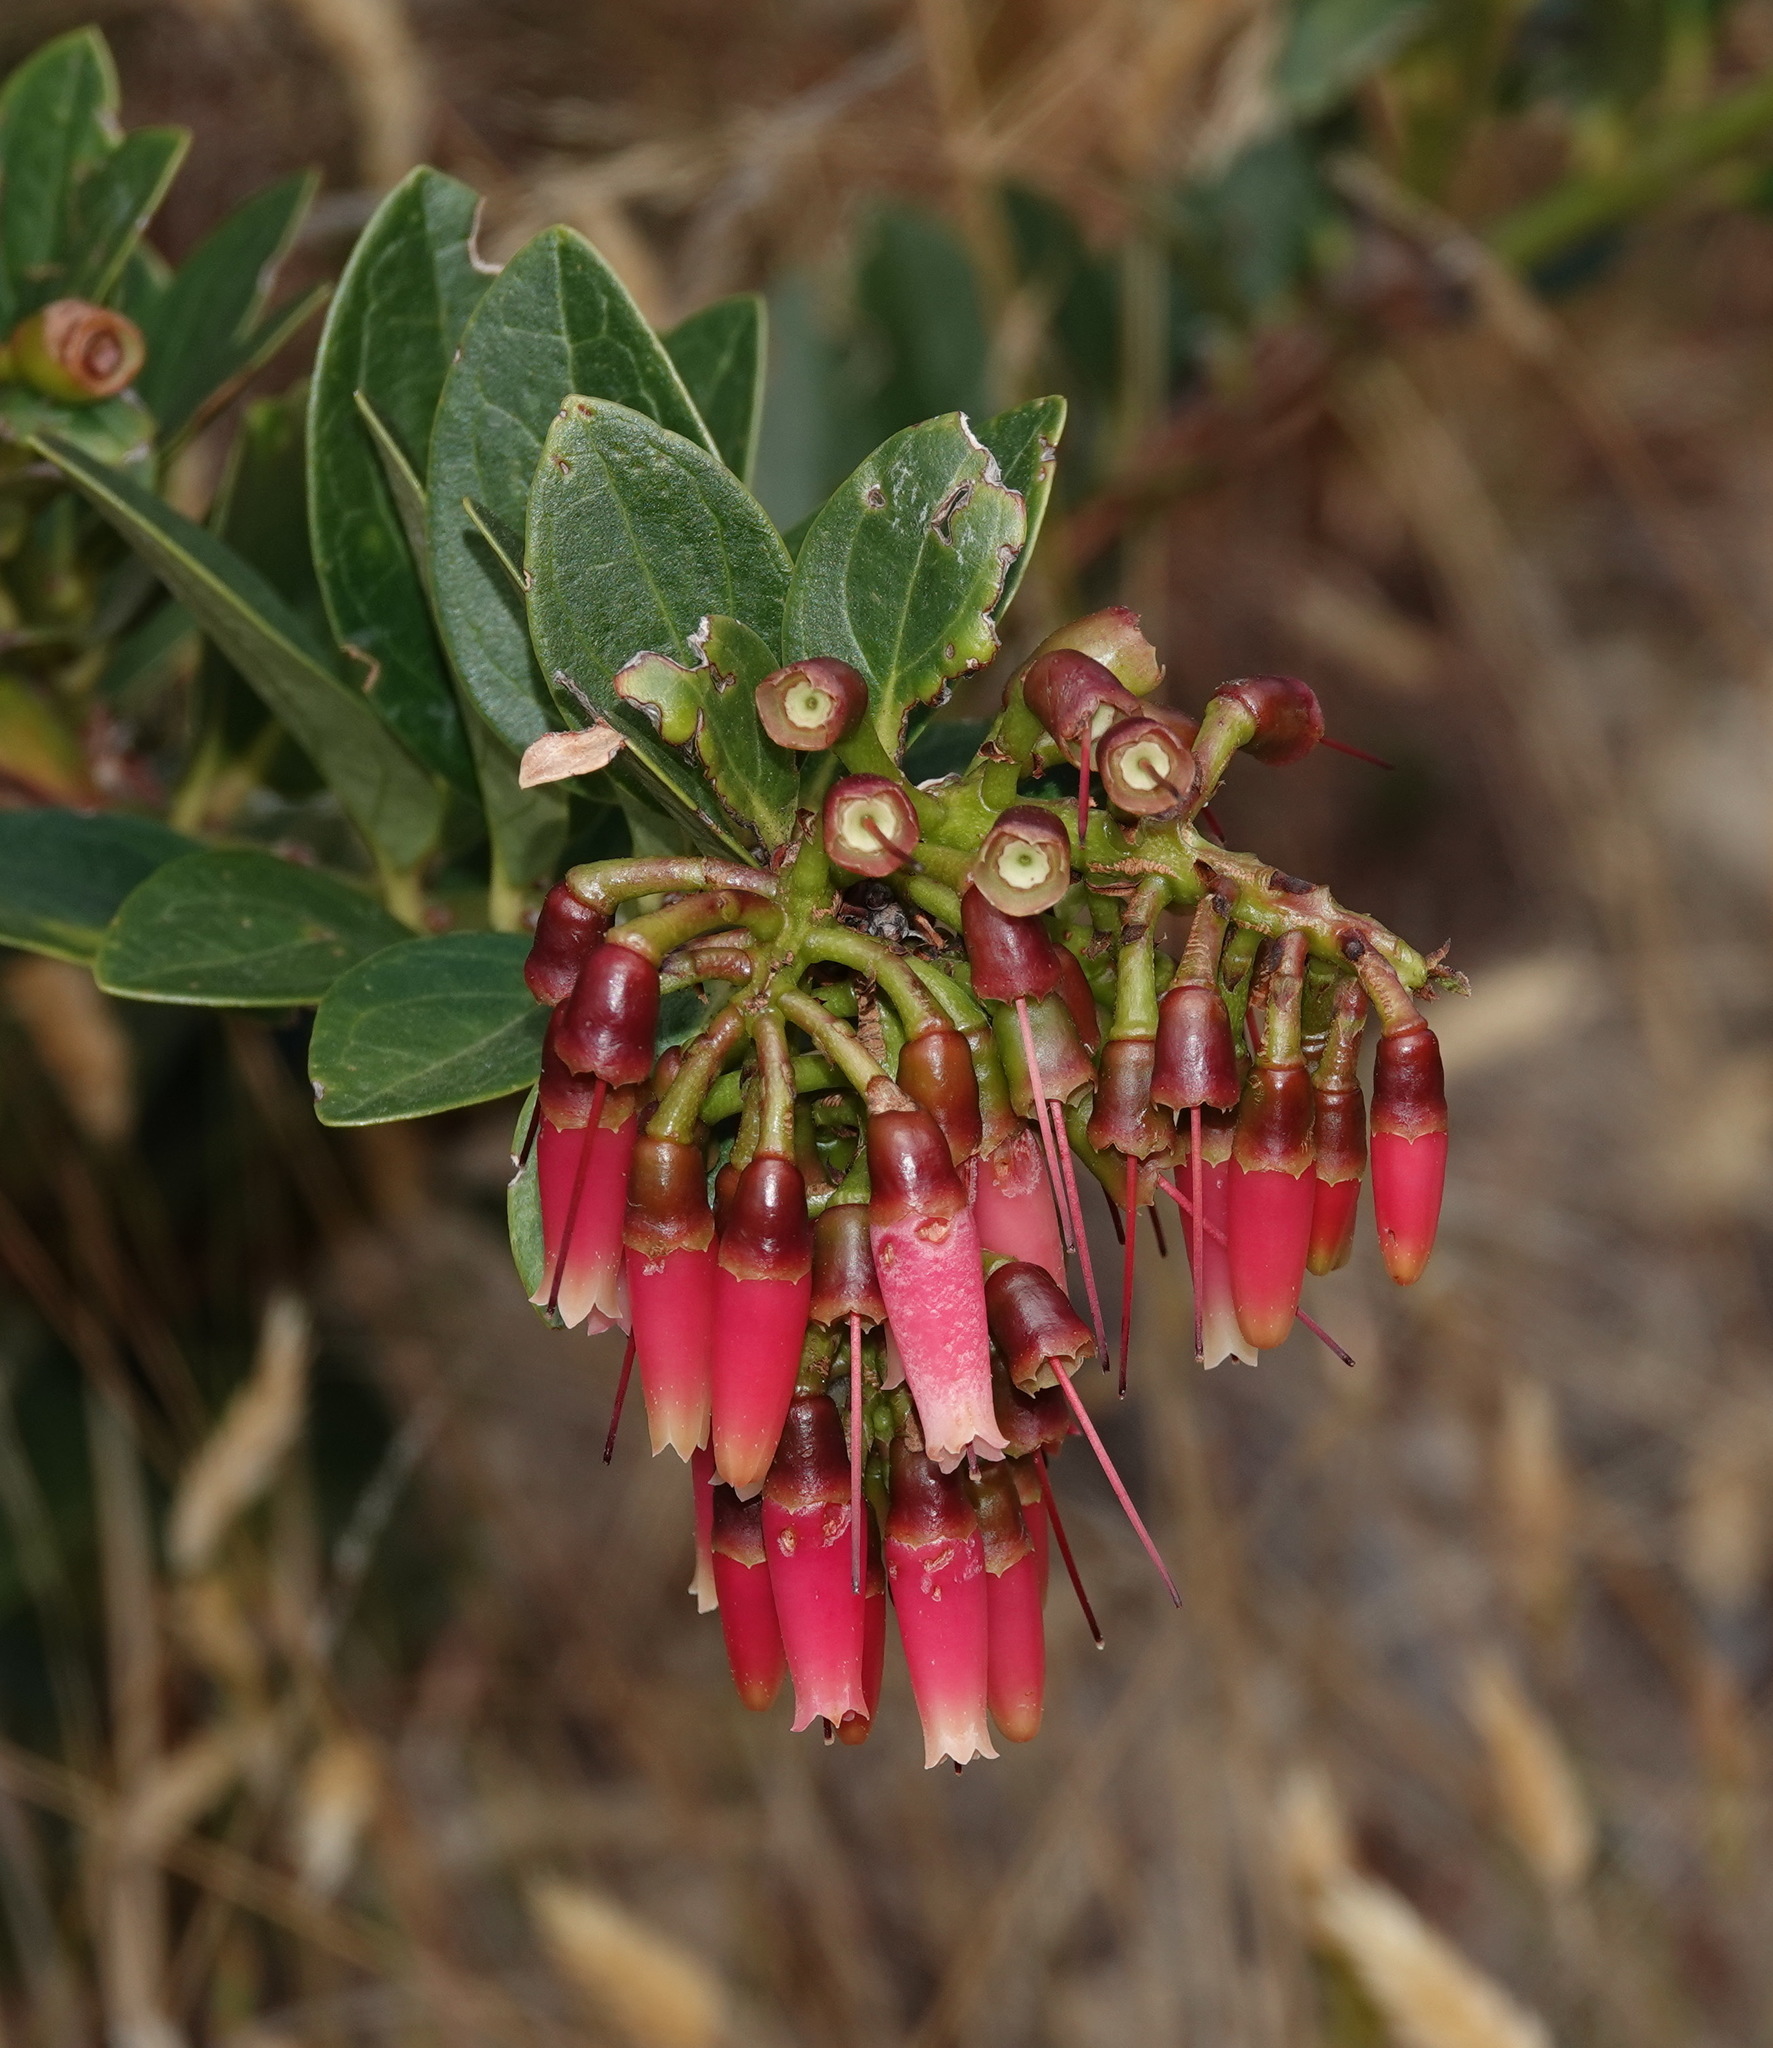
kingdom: Plantae
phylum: Tracheophyta
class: Magnoliopsida
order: Ericales
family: Ericaceae
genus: Macleania
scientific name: Macleania rupestris
